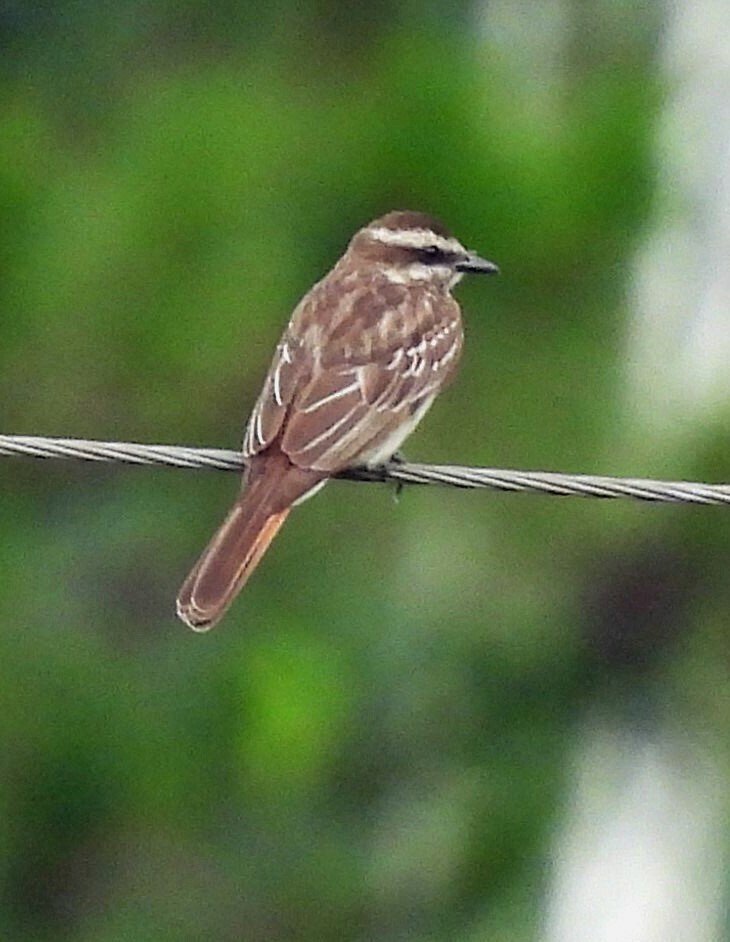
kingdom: Animalia
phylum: Chordata
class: Aves
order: Passeriformes
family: Tyrannidae
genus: Empidonomus
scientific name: Empidonomus varius
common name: Variegated flycatcher
